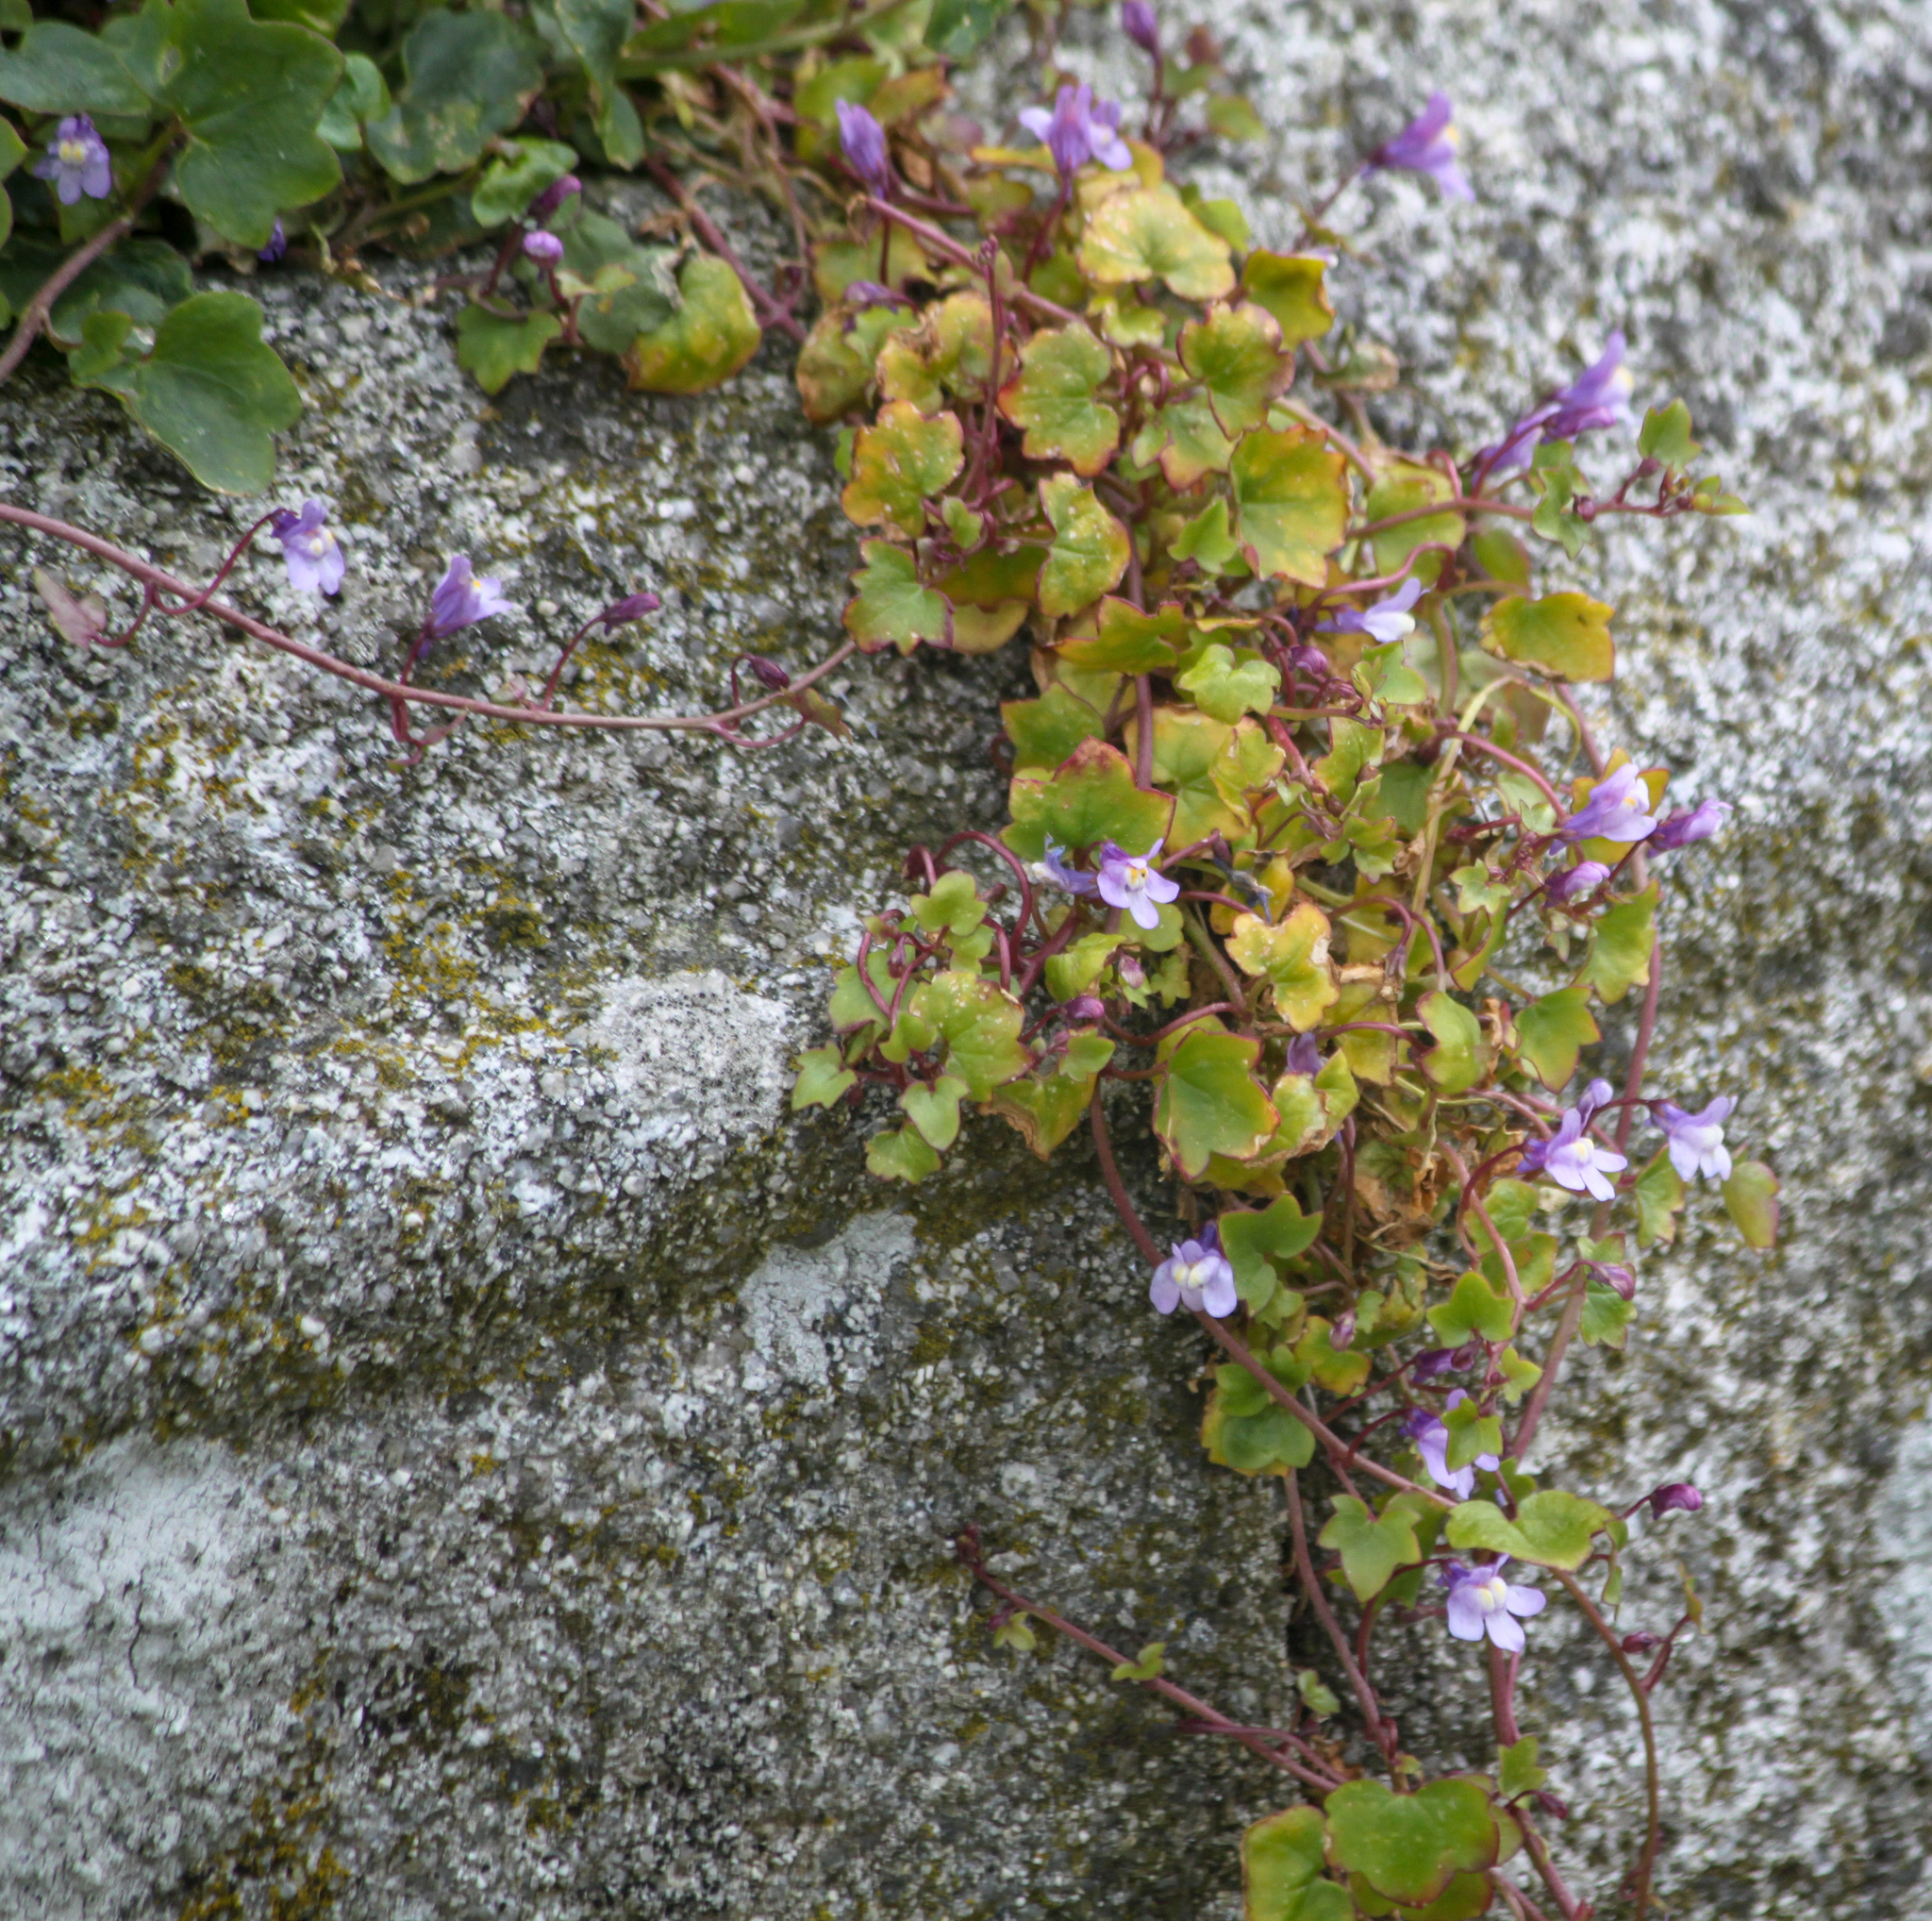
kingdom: Plantae
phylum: Tracheophyta
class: Magnoliopsida
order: Lamiales
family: Plantaginaceae
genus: Cymbalaria
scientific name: Cymbalaria muralis
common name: Ivy-leaved toadflax
